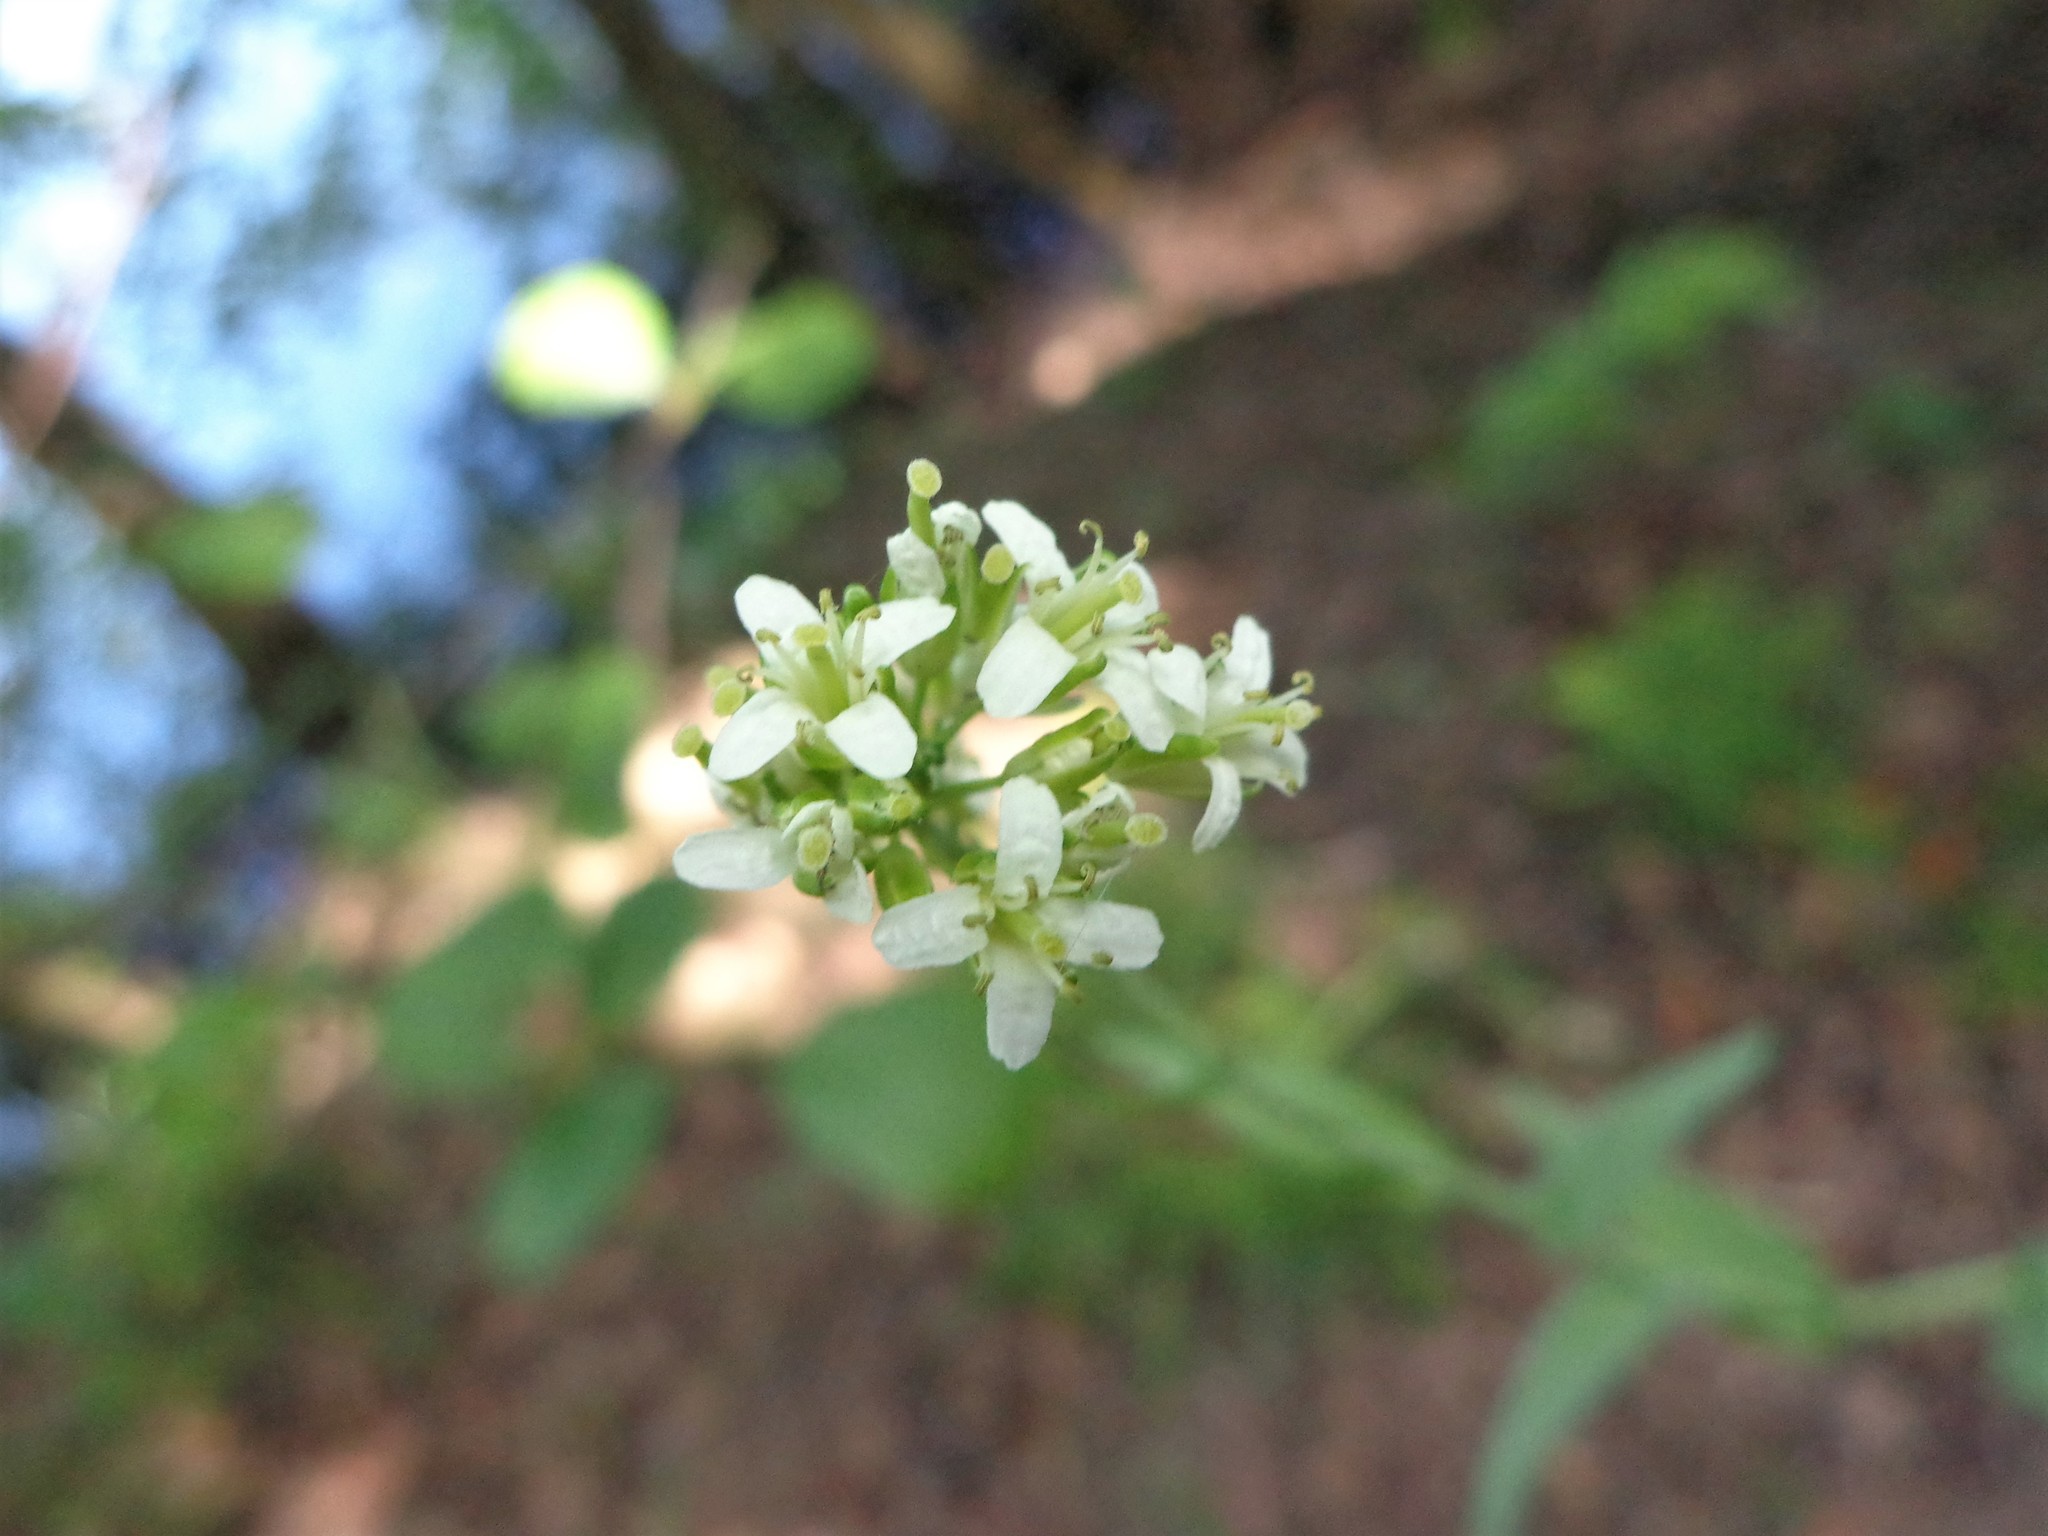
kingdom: Plantae
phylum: Tracheophyta
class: Magnoliopsida
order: Brassicales
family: Brassicaceae
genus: Turritis
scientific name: Turritis glabra
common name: Tower rockcress
